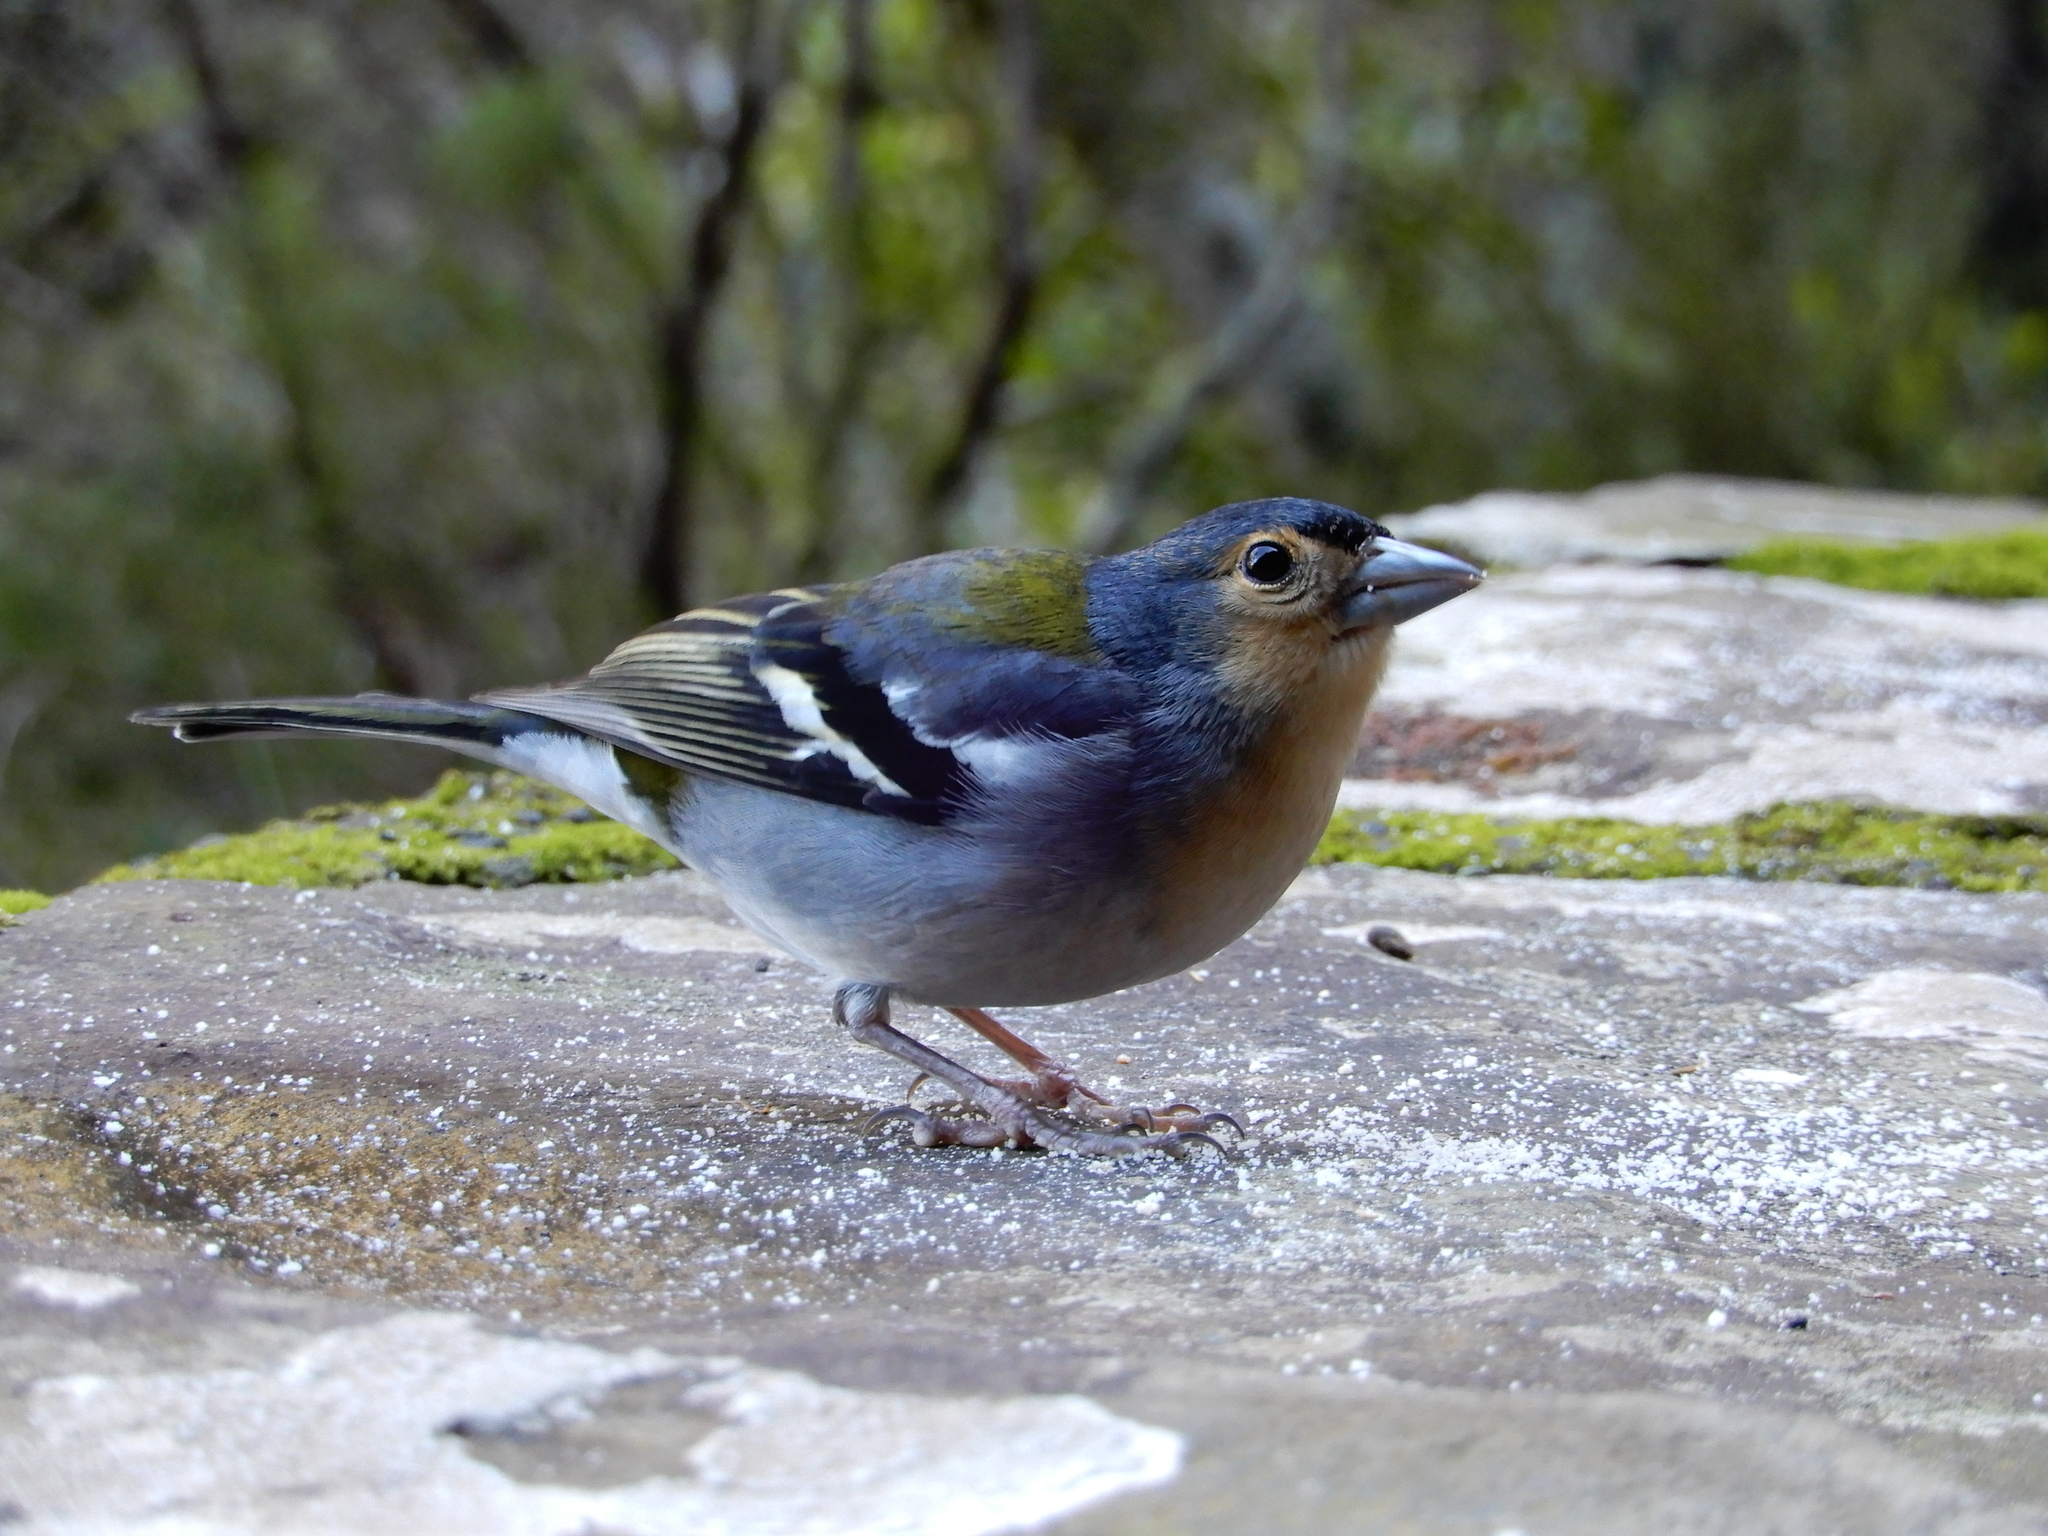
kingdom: Animalia
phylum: Chordata
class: Aves
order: Passeriformes
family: Fringillidae
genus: Fringilla
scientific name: Fringilla maderensis
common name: Madeira chaffinch
